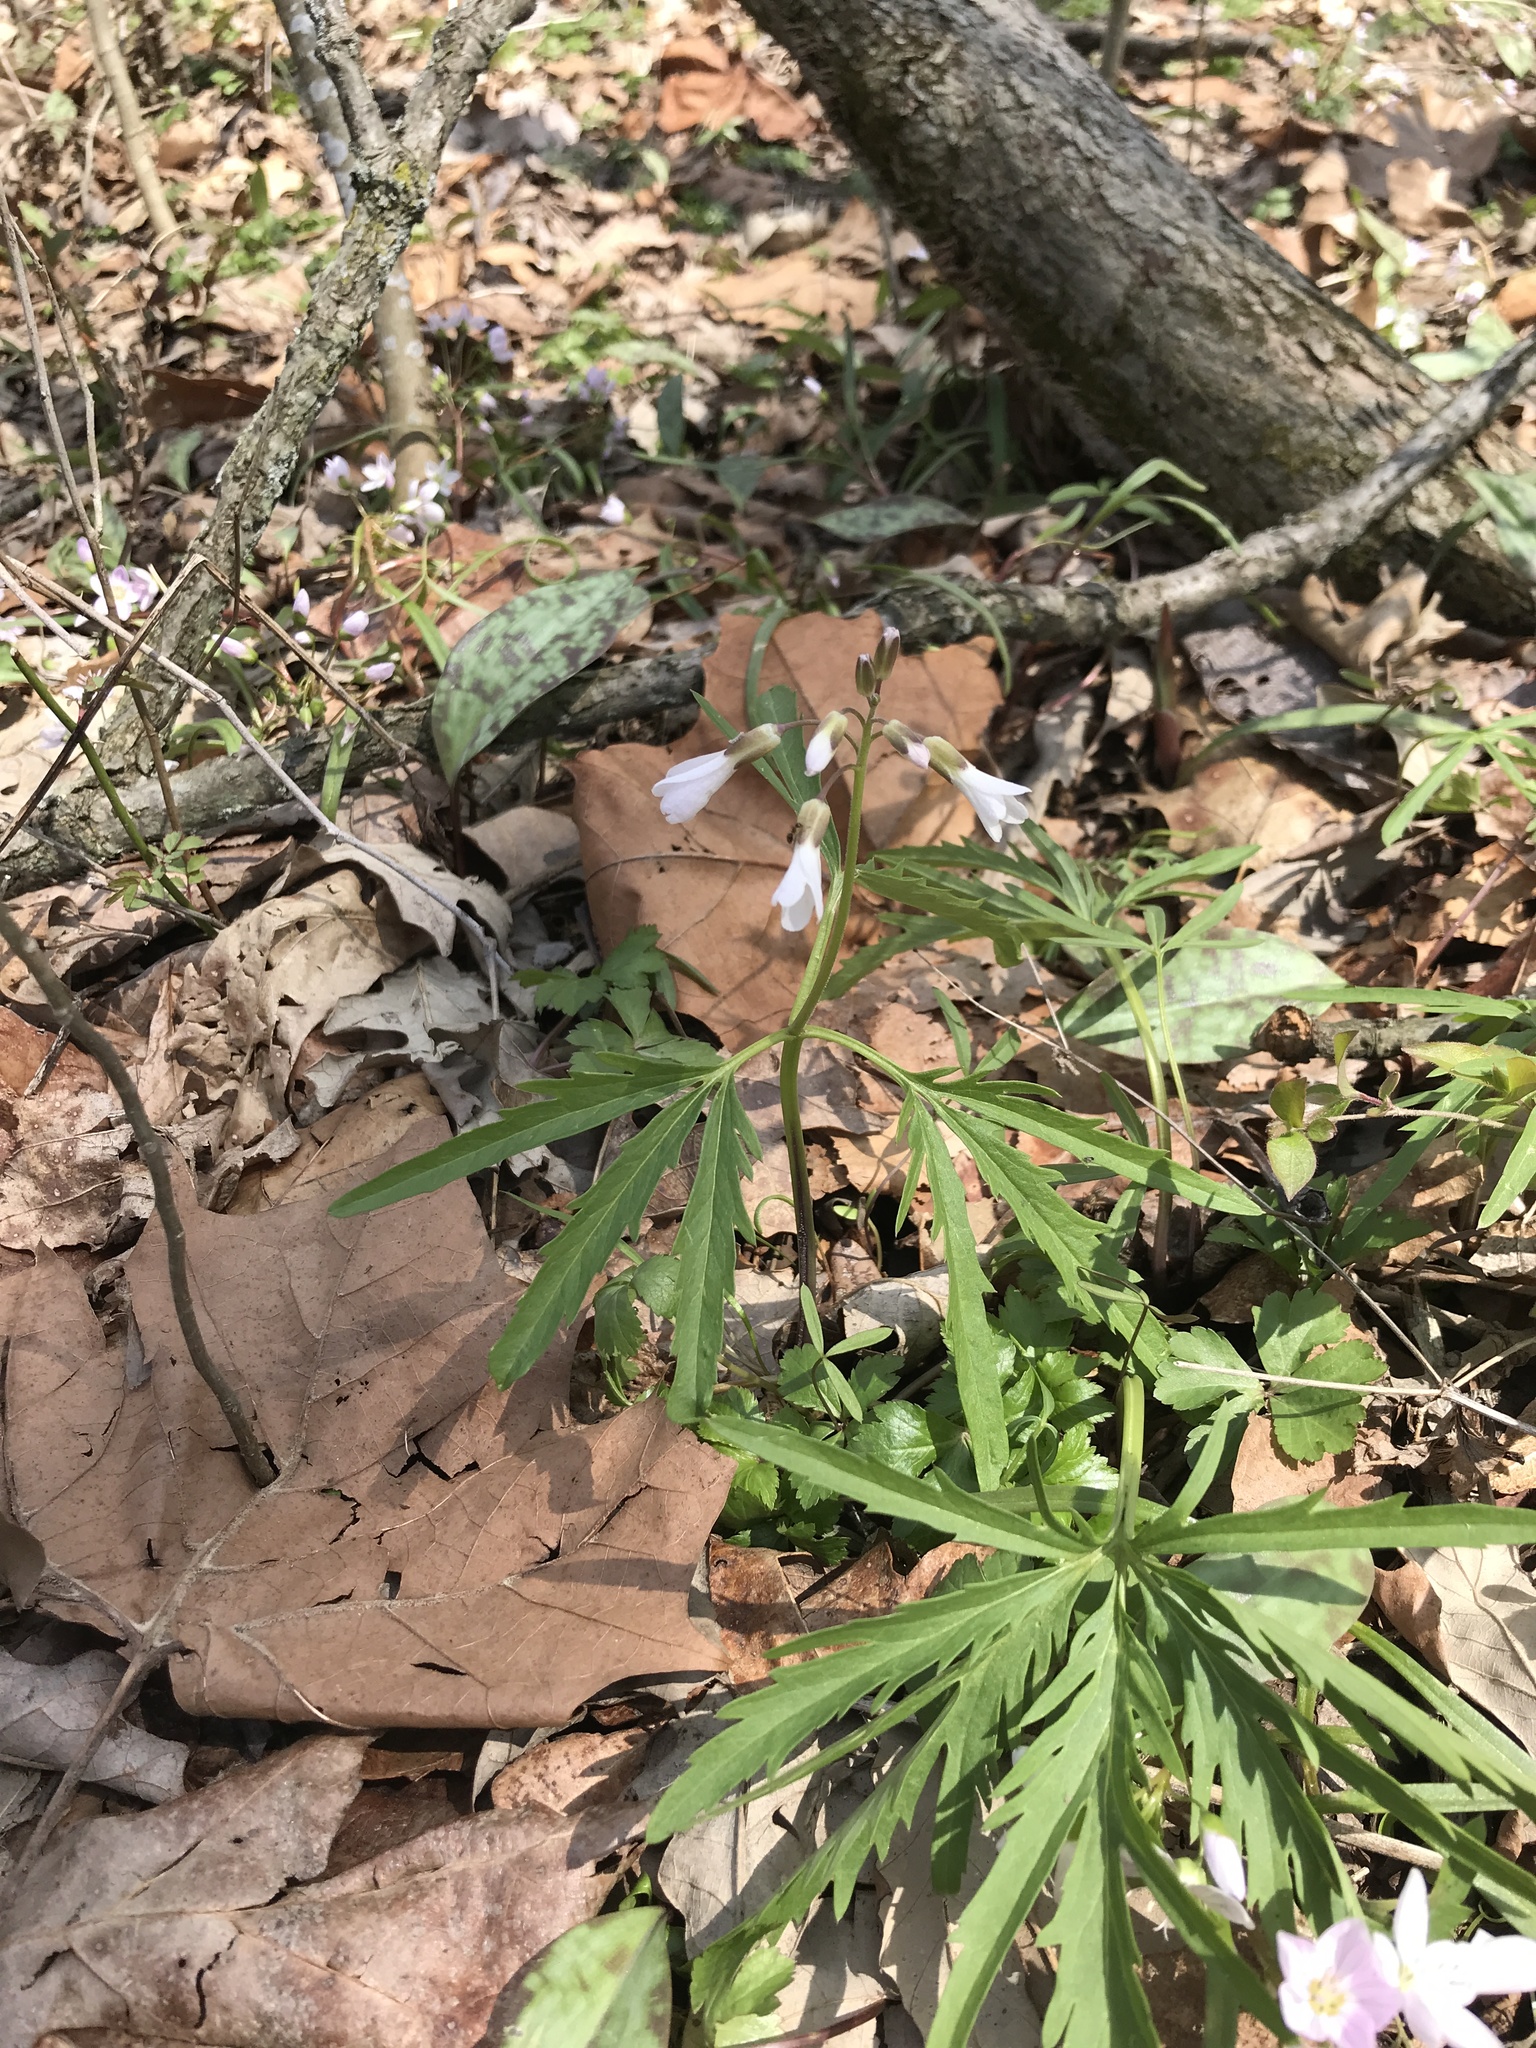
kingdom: Plantae
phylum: Tracheophyta
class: Magnoliopsida
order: Brassicales
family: Brassicaceae
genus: Cardamine
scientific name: Cardamine concatenata
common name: Cut-leaf toothcup
